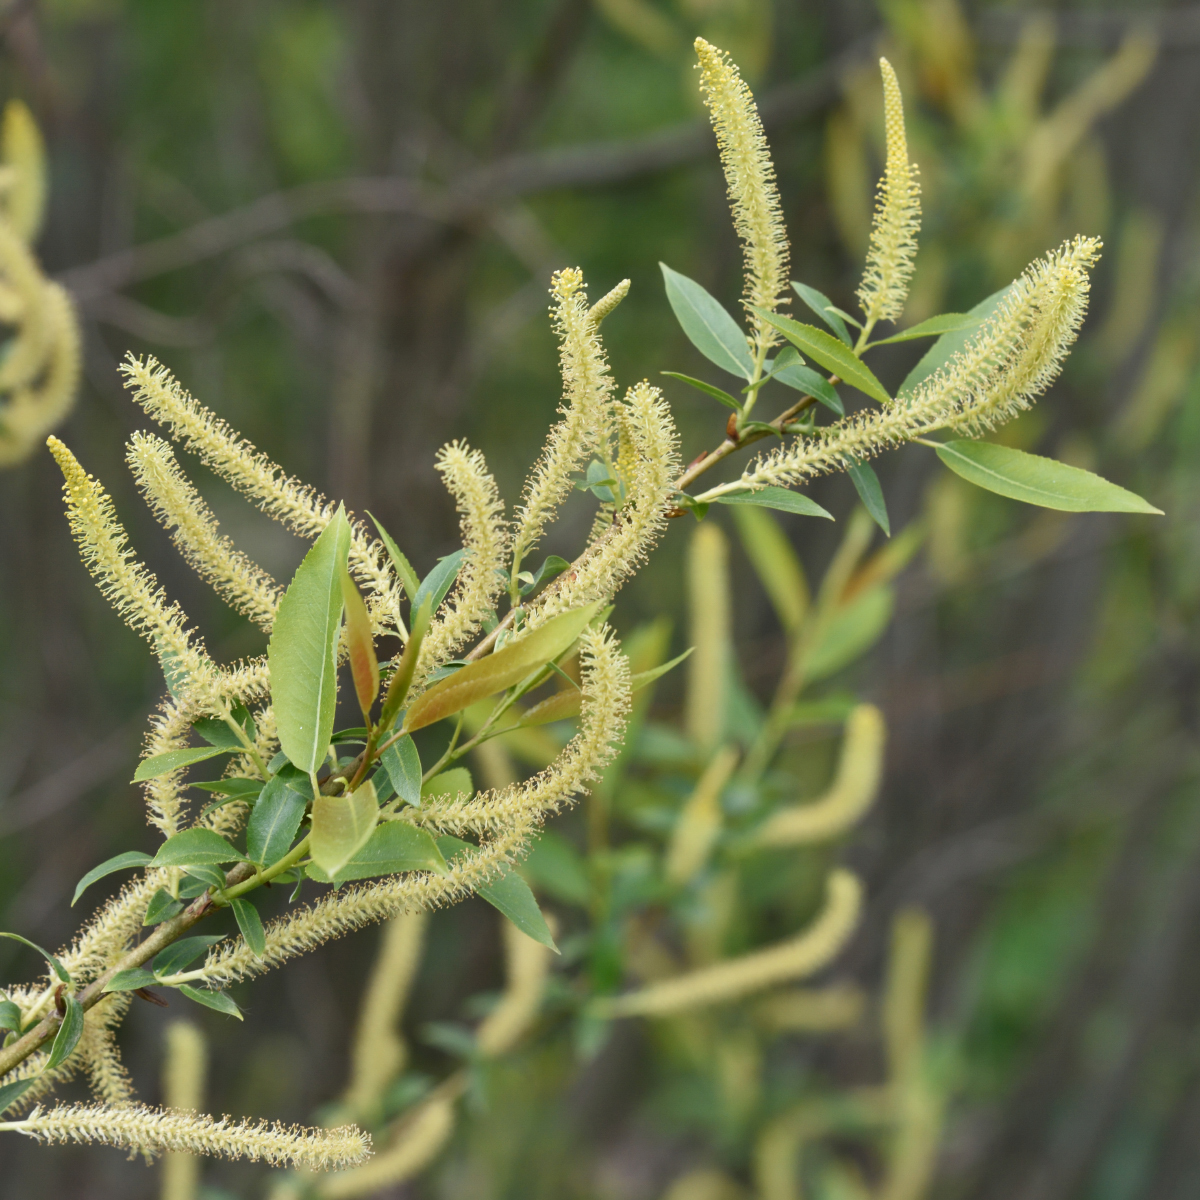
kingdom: Plantae
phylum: Tracheophyta
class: Magnoliopsida
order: Malpighiales
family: Salicaceae
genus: Salix
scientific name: Salix triandra
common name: Almond willow
